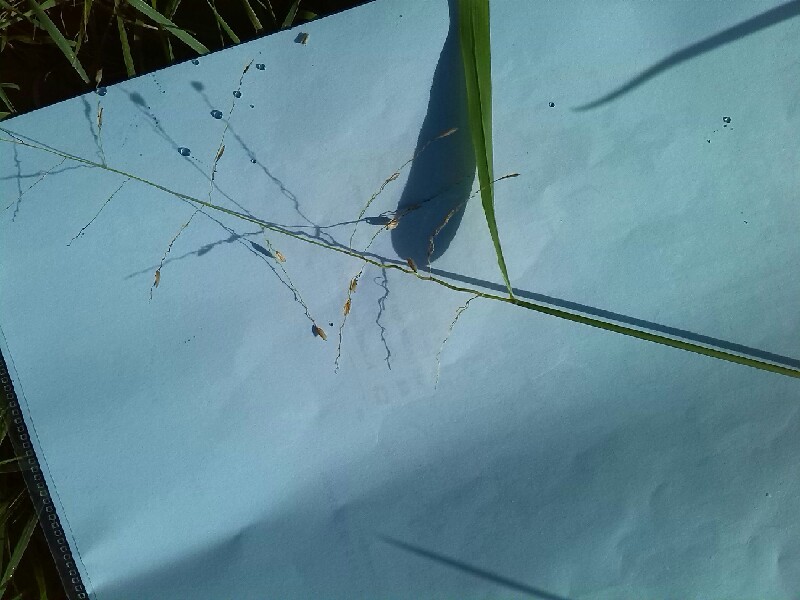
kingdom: Plantae
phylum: Tracheophyta
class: Liliopsida
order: Poales
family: Poaceae
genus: Leersia
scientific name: Leersia oryzoides
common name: Cut-grass
